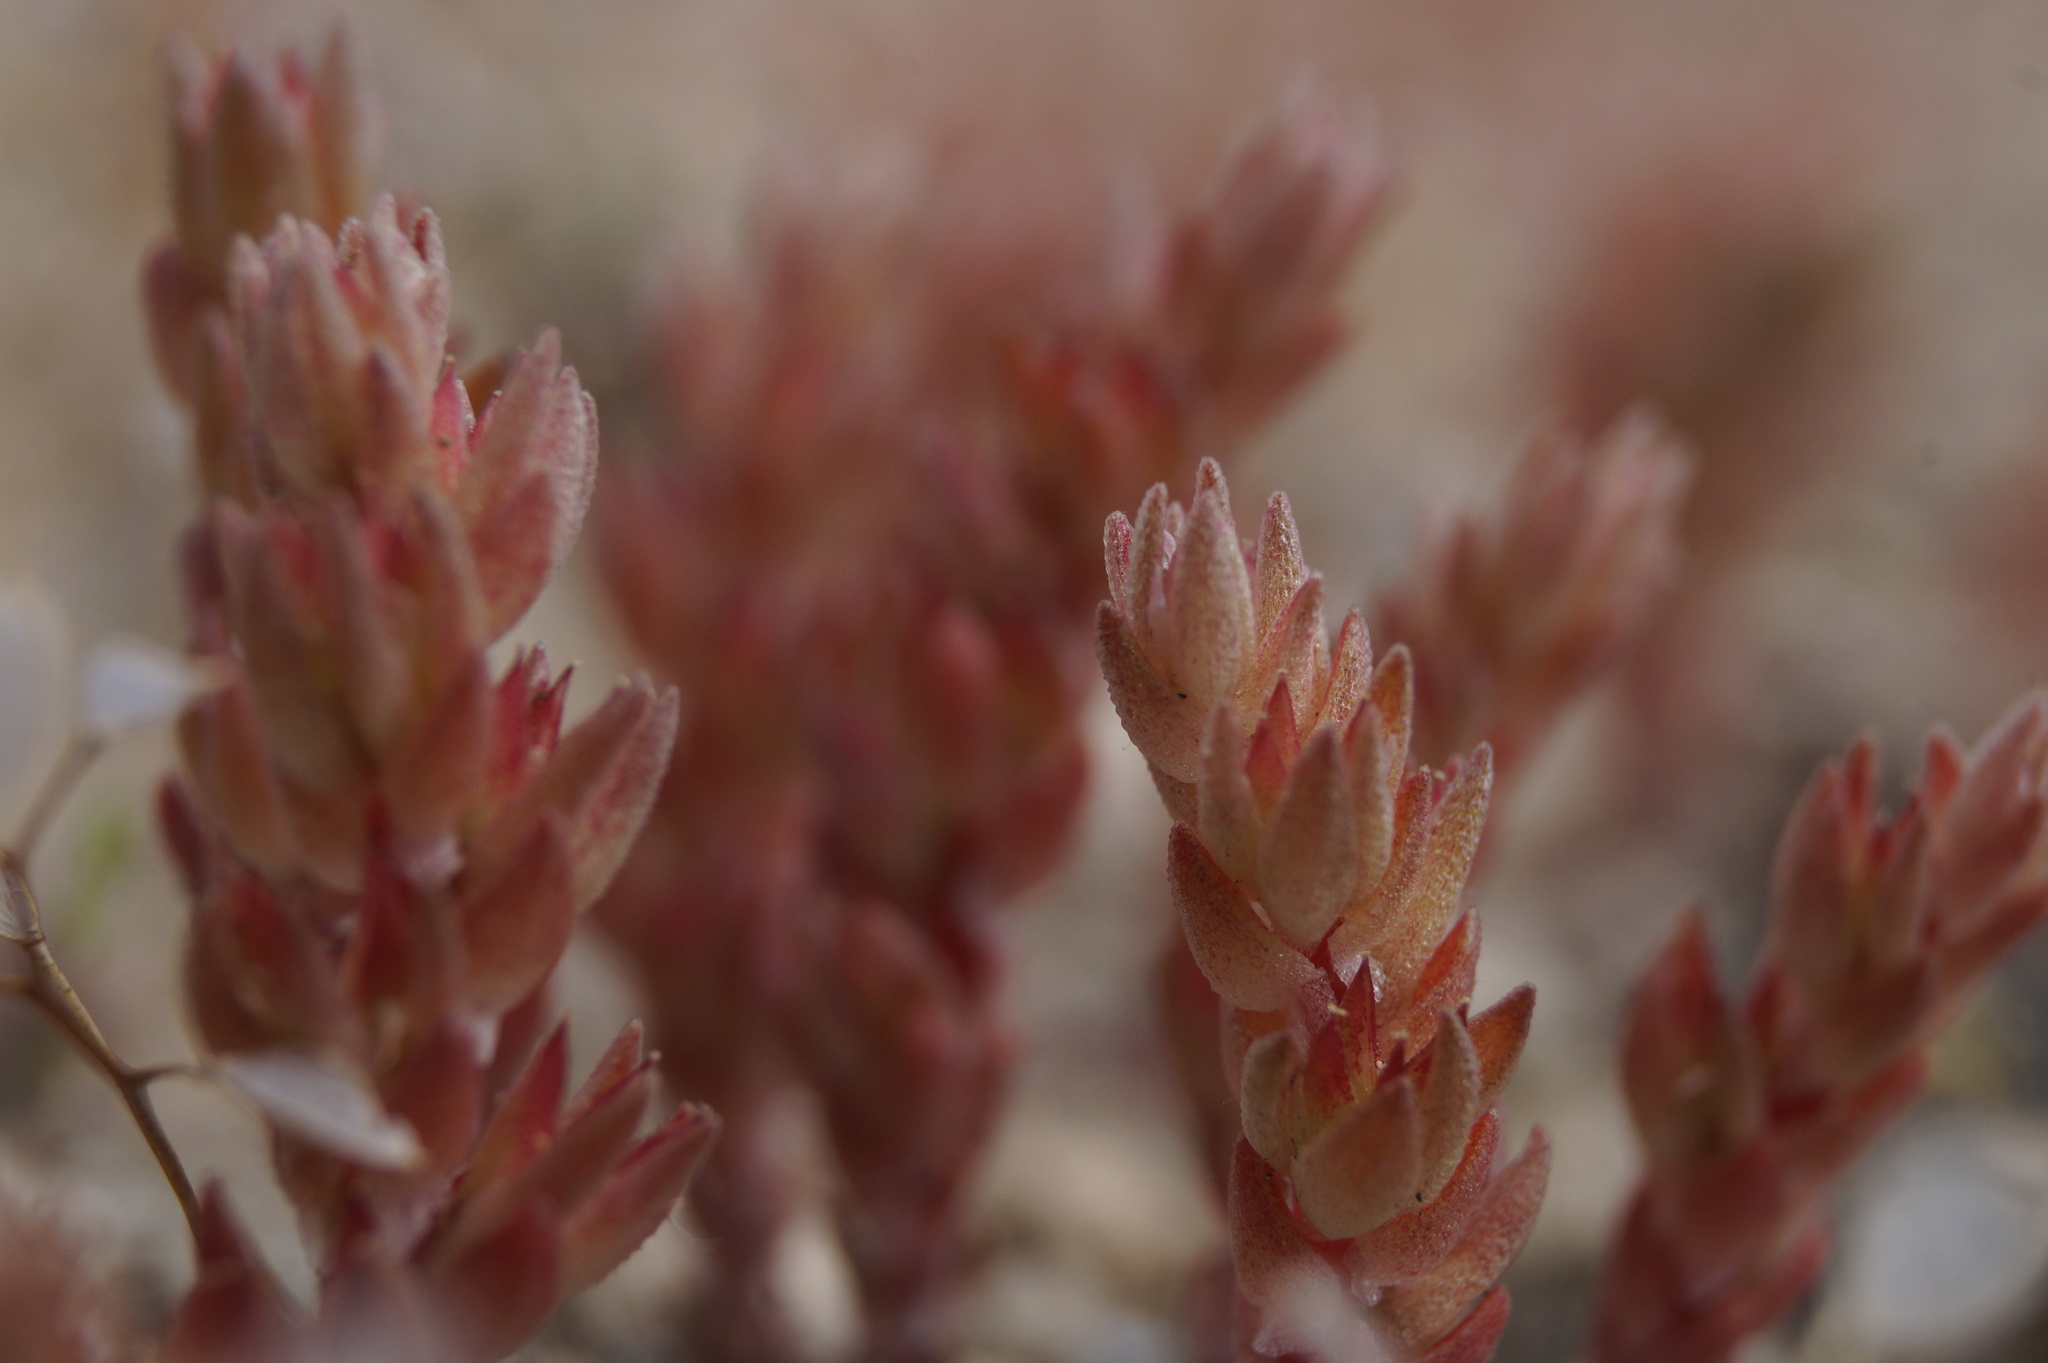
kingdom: Plantae
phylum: Tracheophyta
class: Magnoliopsida
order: Saxifragales
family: Crassulaceae
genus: Sedum
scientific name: Sedum aetnense
